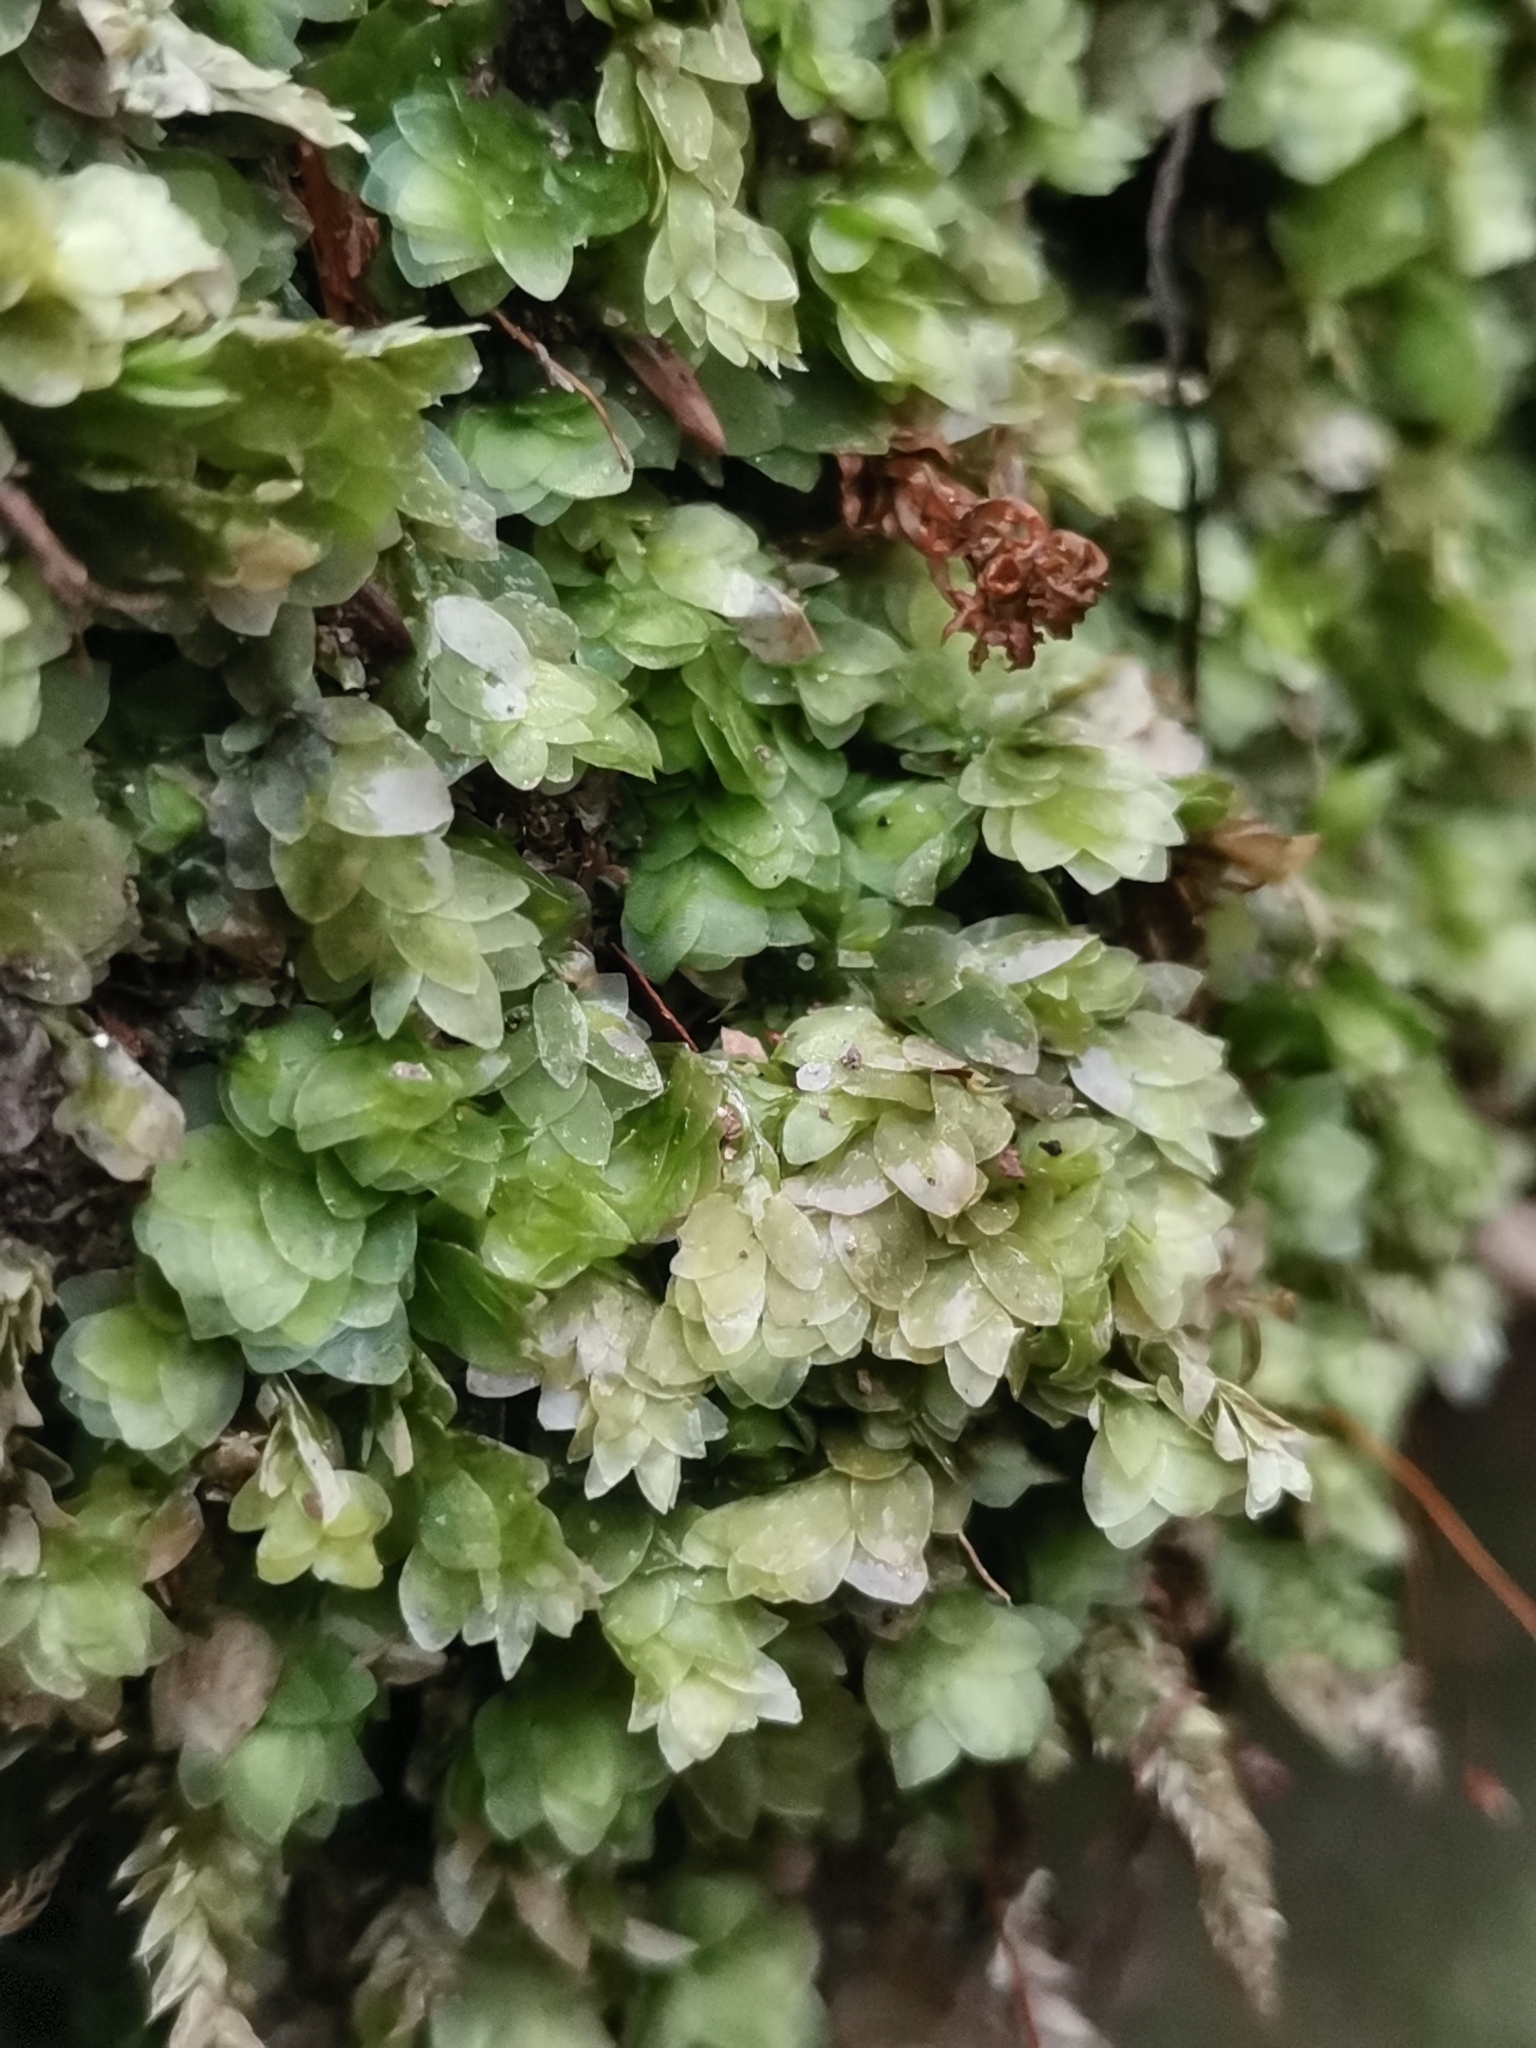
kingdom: Plantae
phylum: Bryophyta
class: Bryopsida
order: Hookeriales
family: Hookeriaceae
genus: Hookeria
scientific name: Hookeria lucens
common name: Shining hookeria
